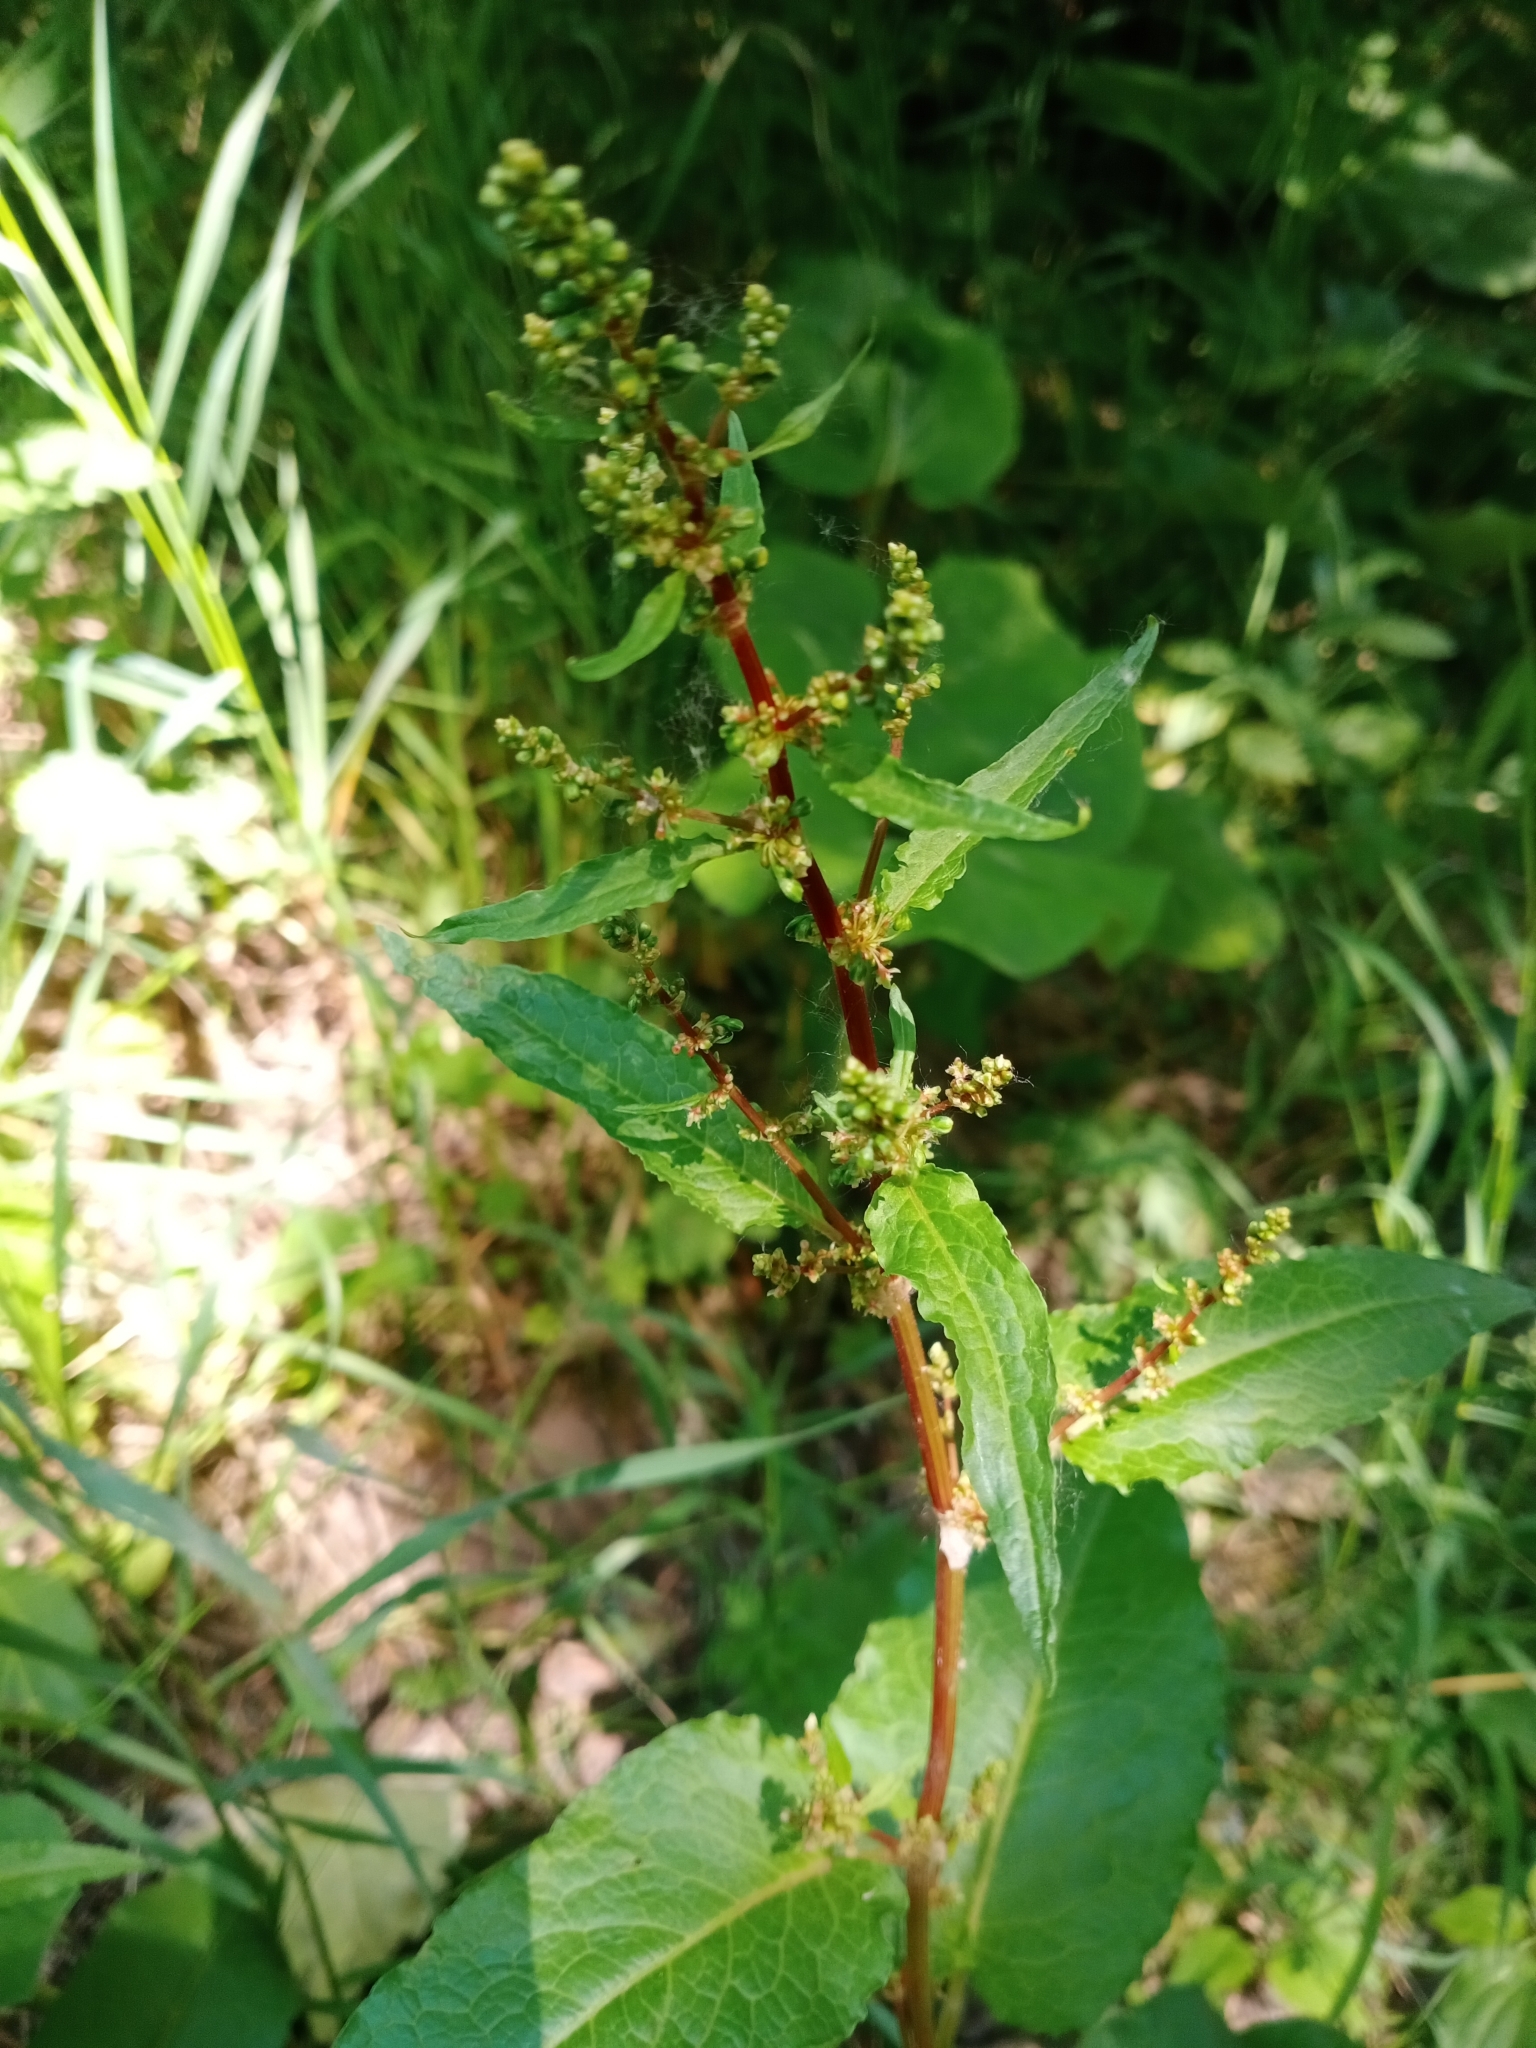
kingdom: Plantae
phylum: Tracheophyta
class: Magnoliopsida
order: Caryophyllales
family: Polygonaceae
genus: Rumex
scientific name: Rumex obtusifolius
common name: Bitter dock
